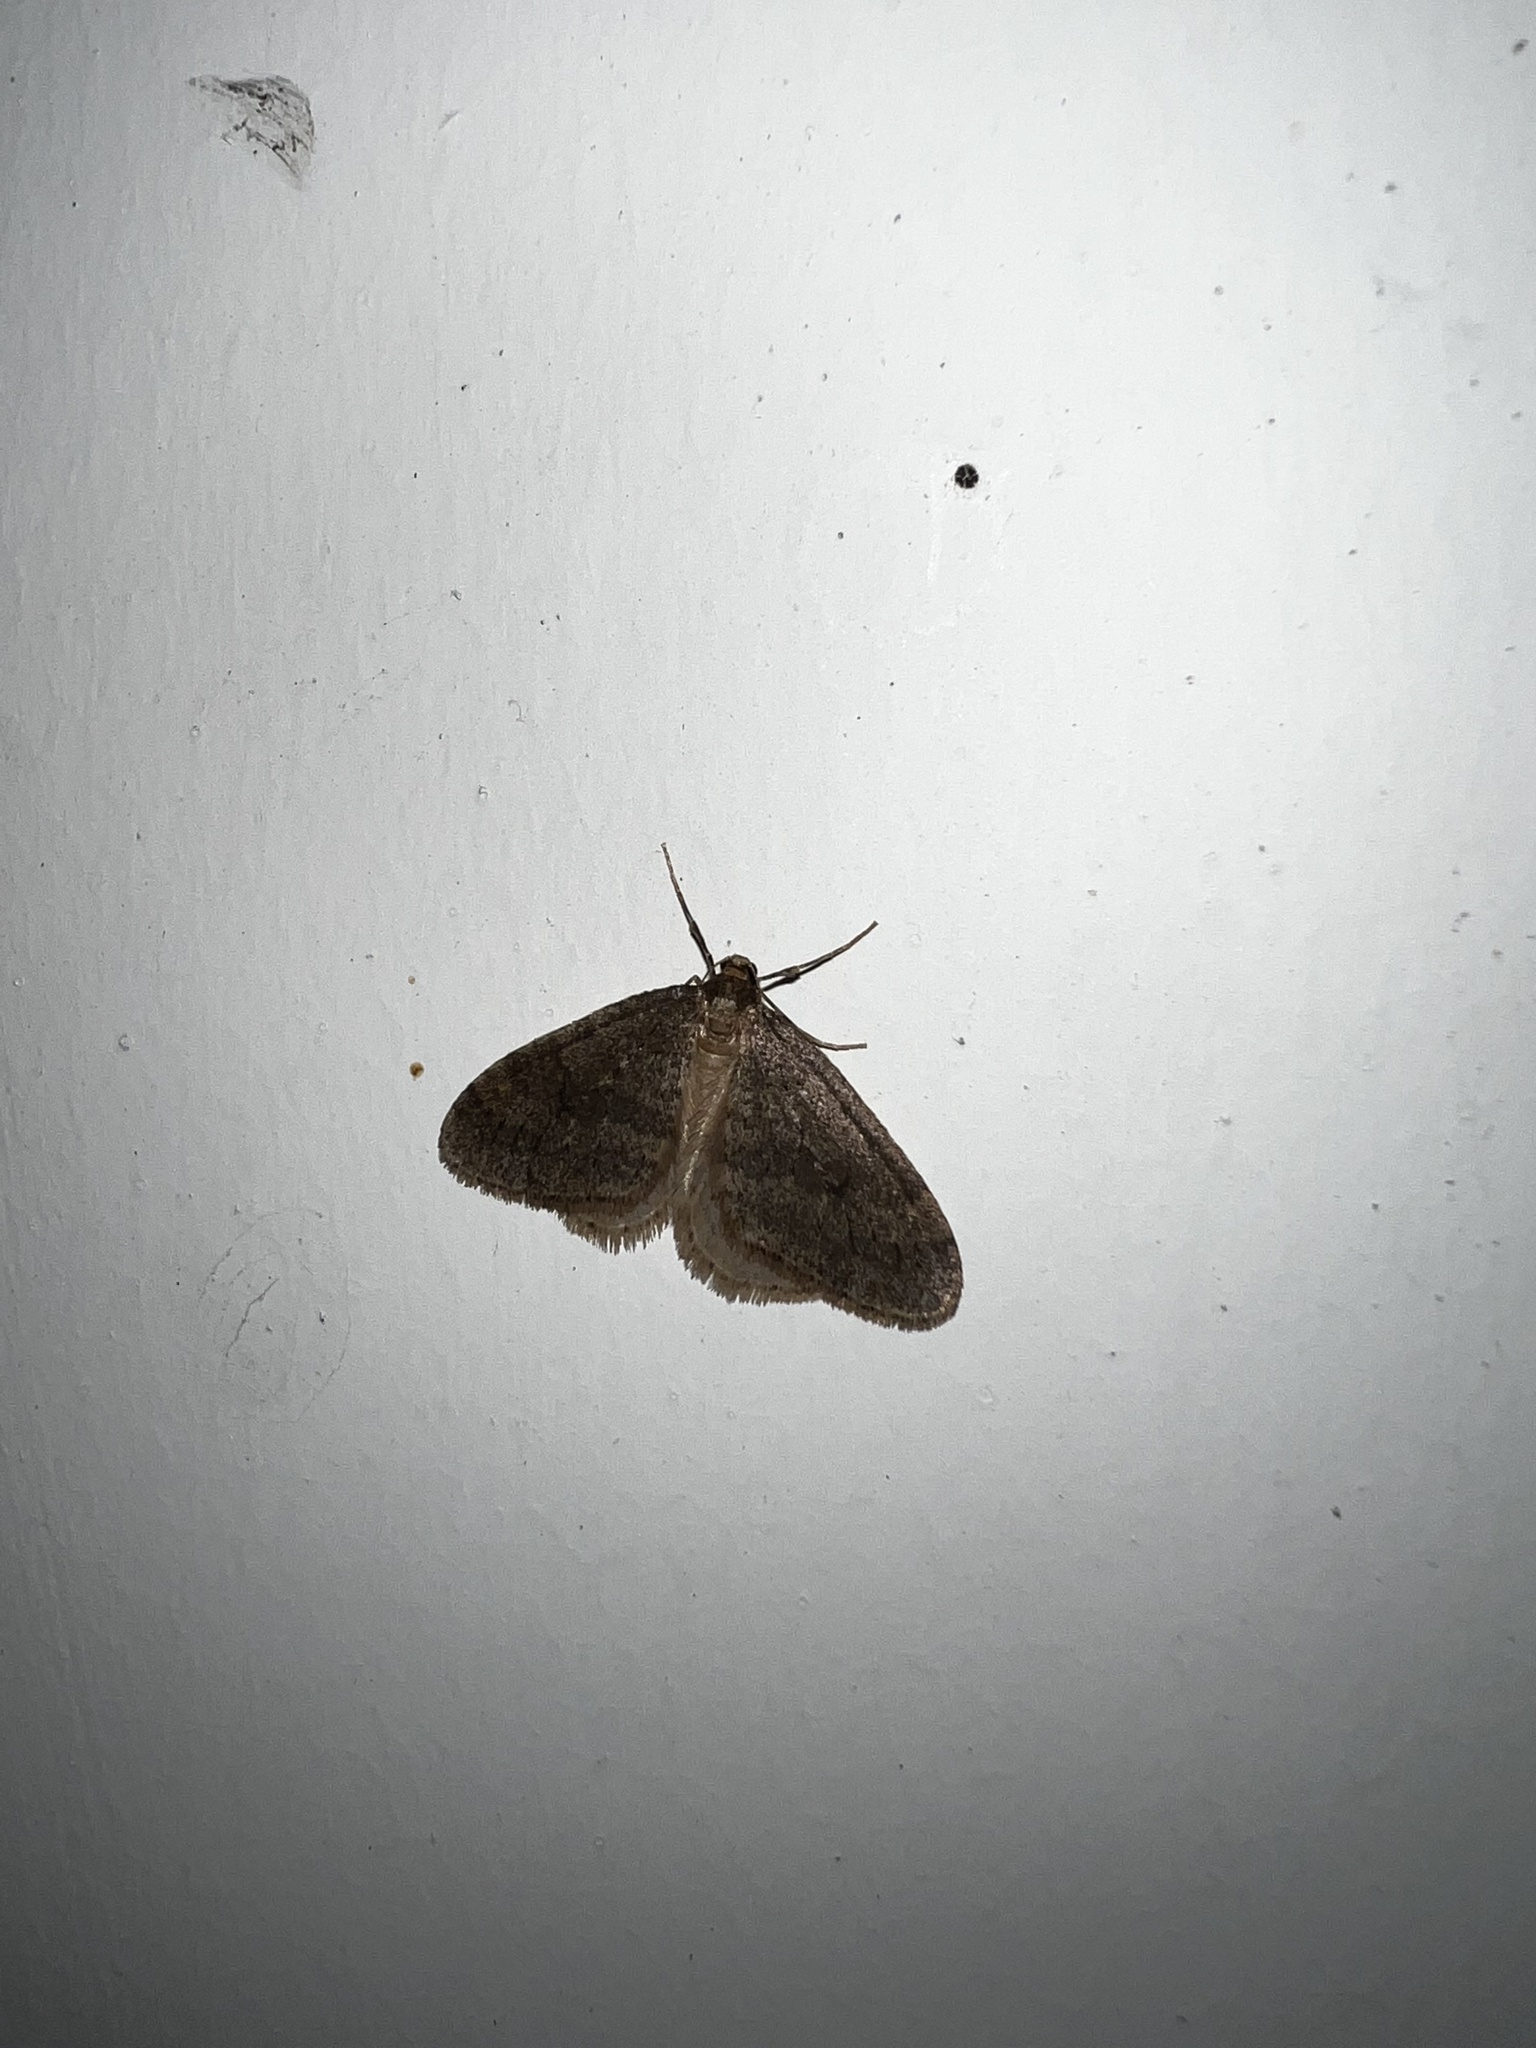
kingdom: Animalia
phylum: Arthropoda
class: Insecta
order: Lepidoptera
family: Geometridae
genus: Operophtera
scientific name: Operophtera
